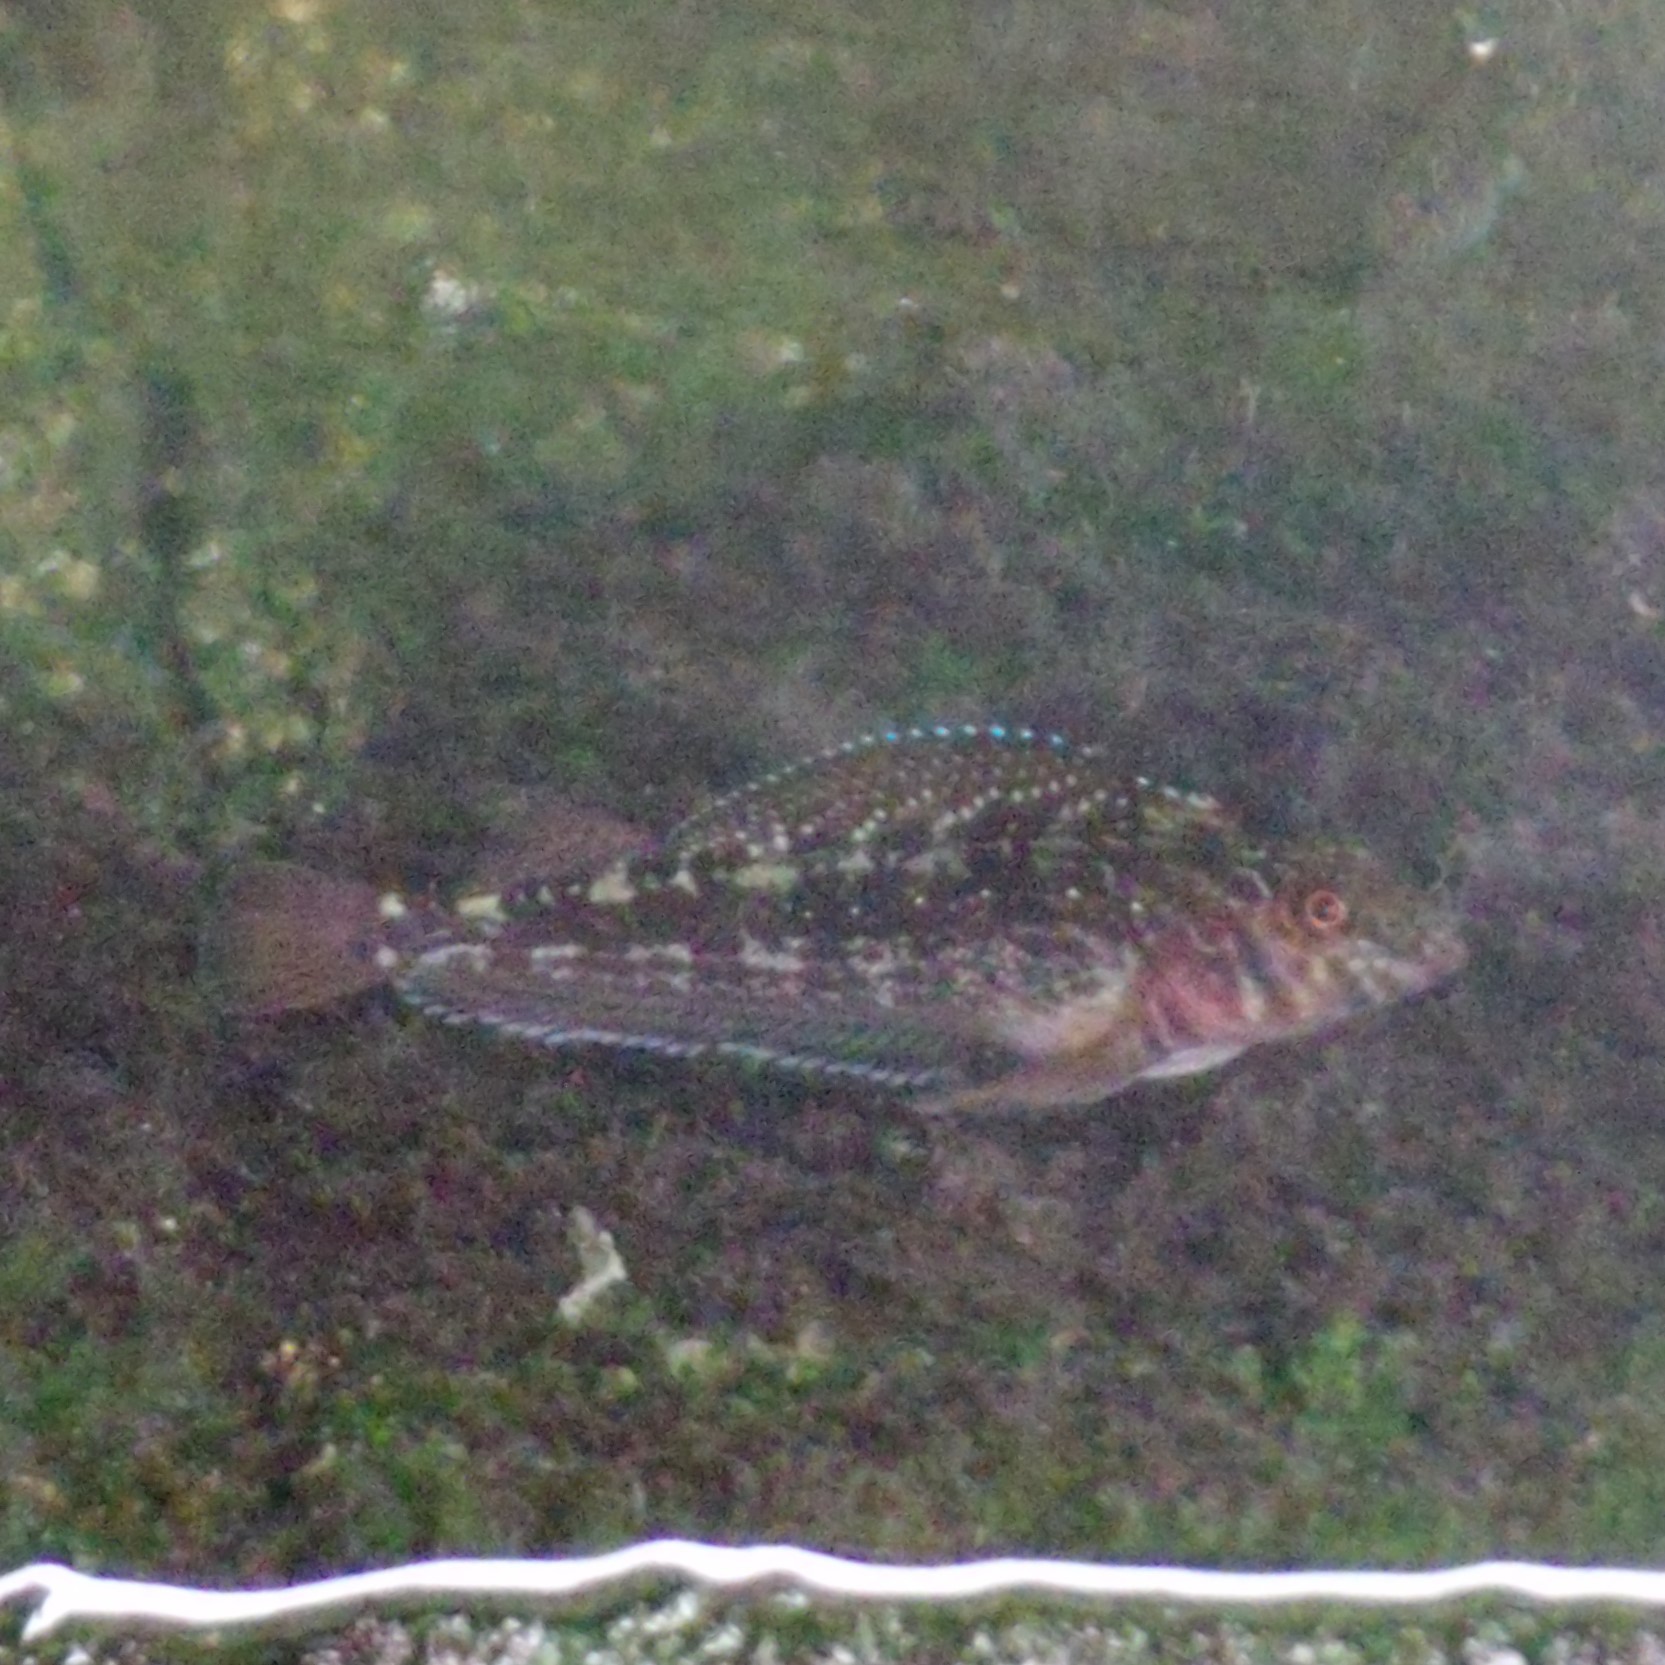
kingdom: Animalia
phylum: Chordata
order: Perciformes
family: Tripterygiidae
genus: Forsterygion
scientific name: Forsterygion varium
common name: Variable triplefin
